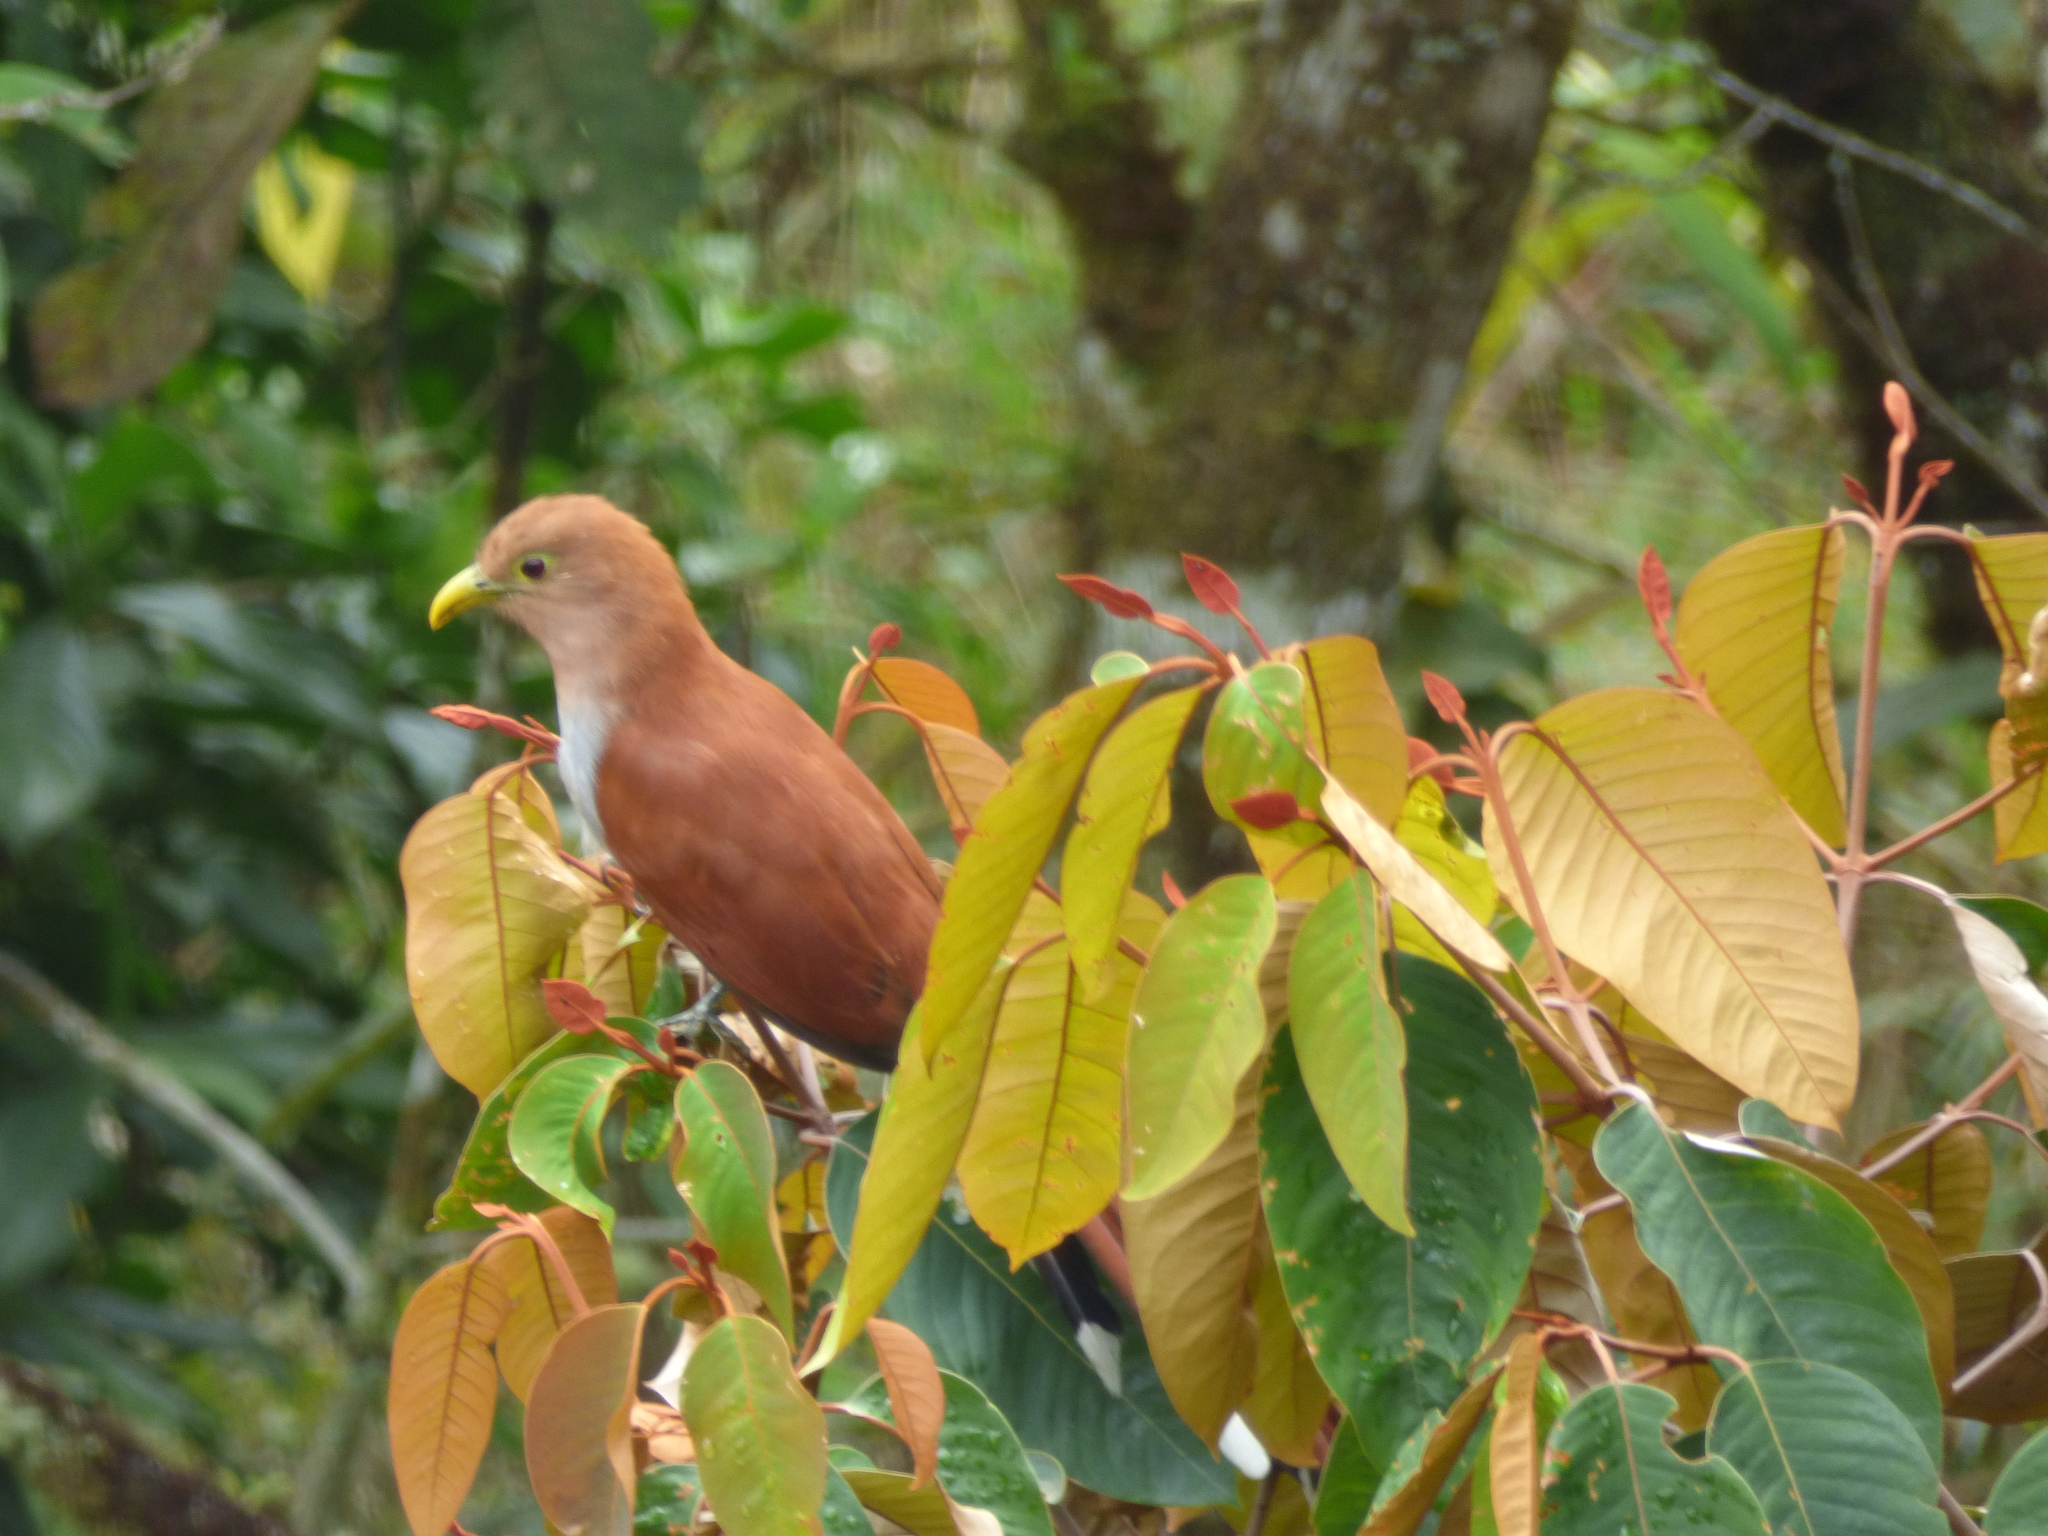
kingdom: Animalia
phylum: Chordata
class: Aves
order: Cuculiformes
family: Cuculidae
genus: Piaya
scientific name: Piaya cayana
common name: Squirrel cuckoo
